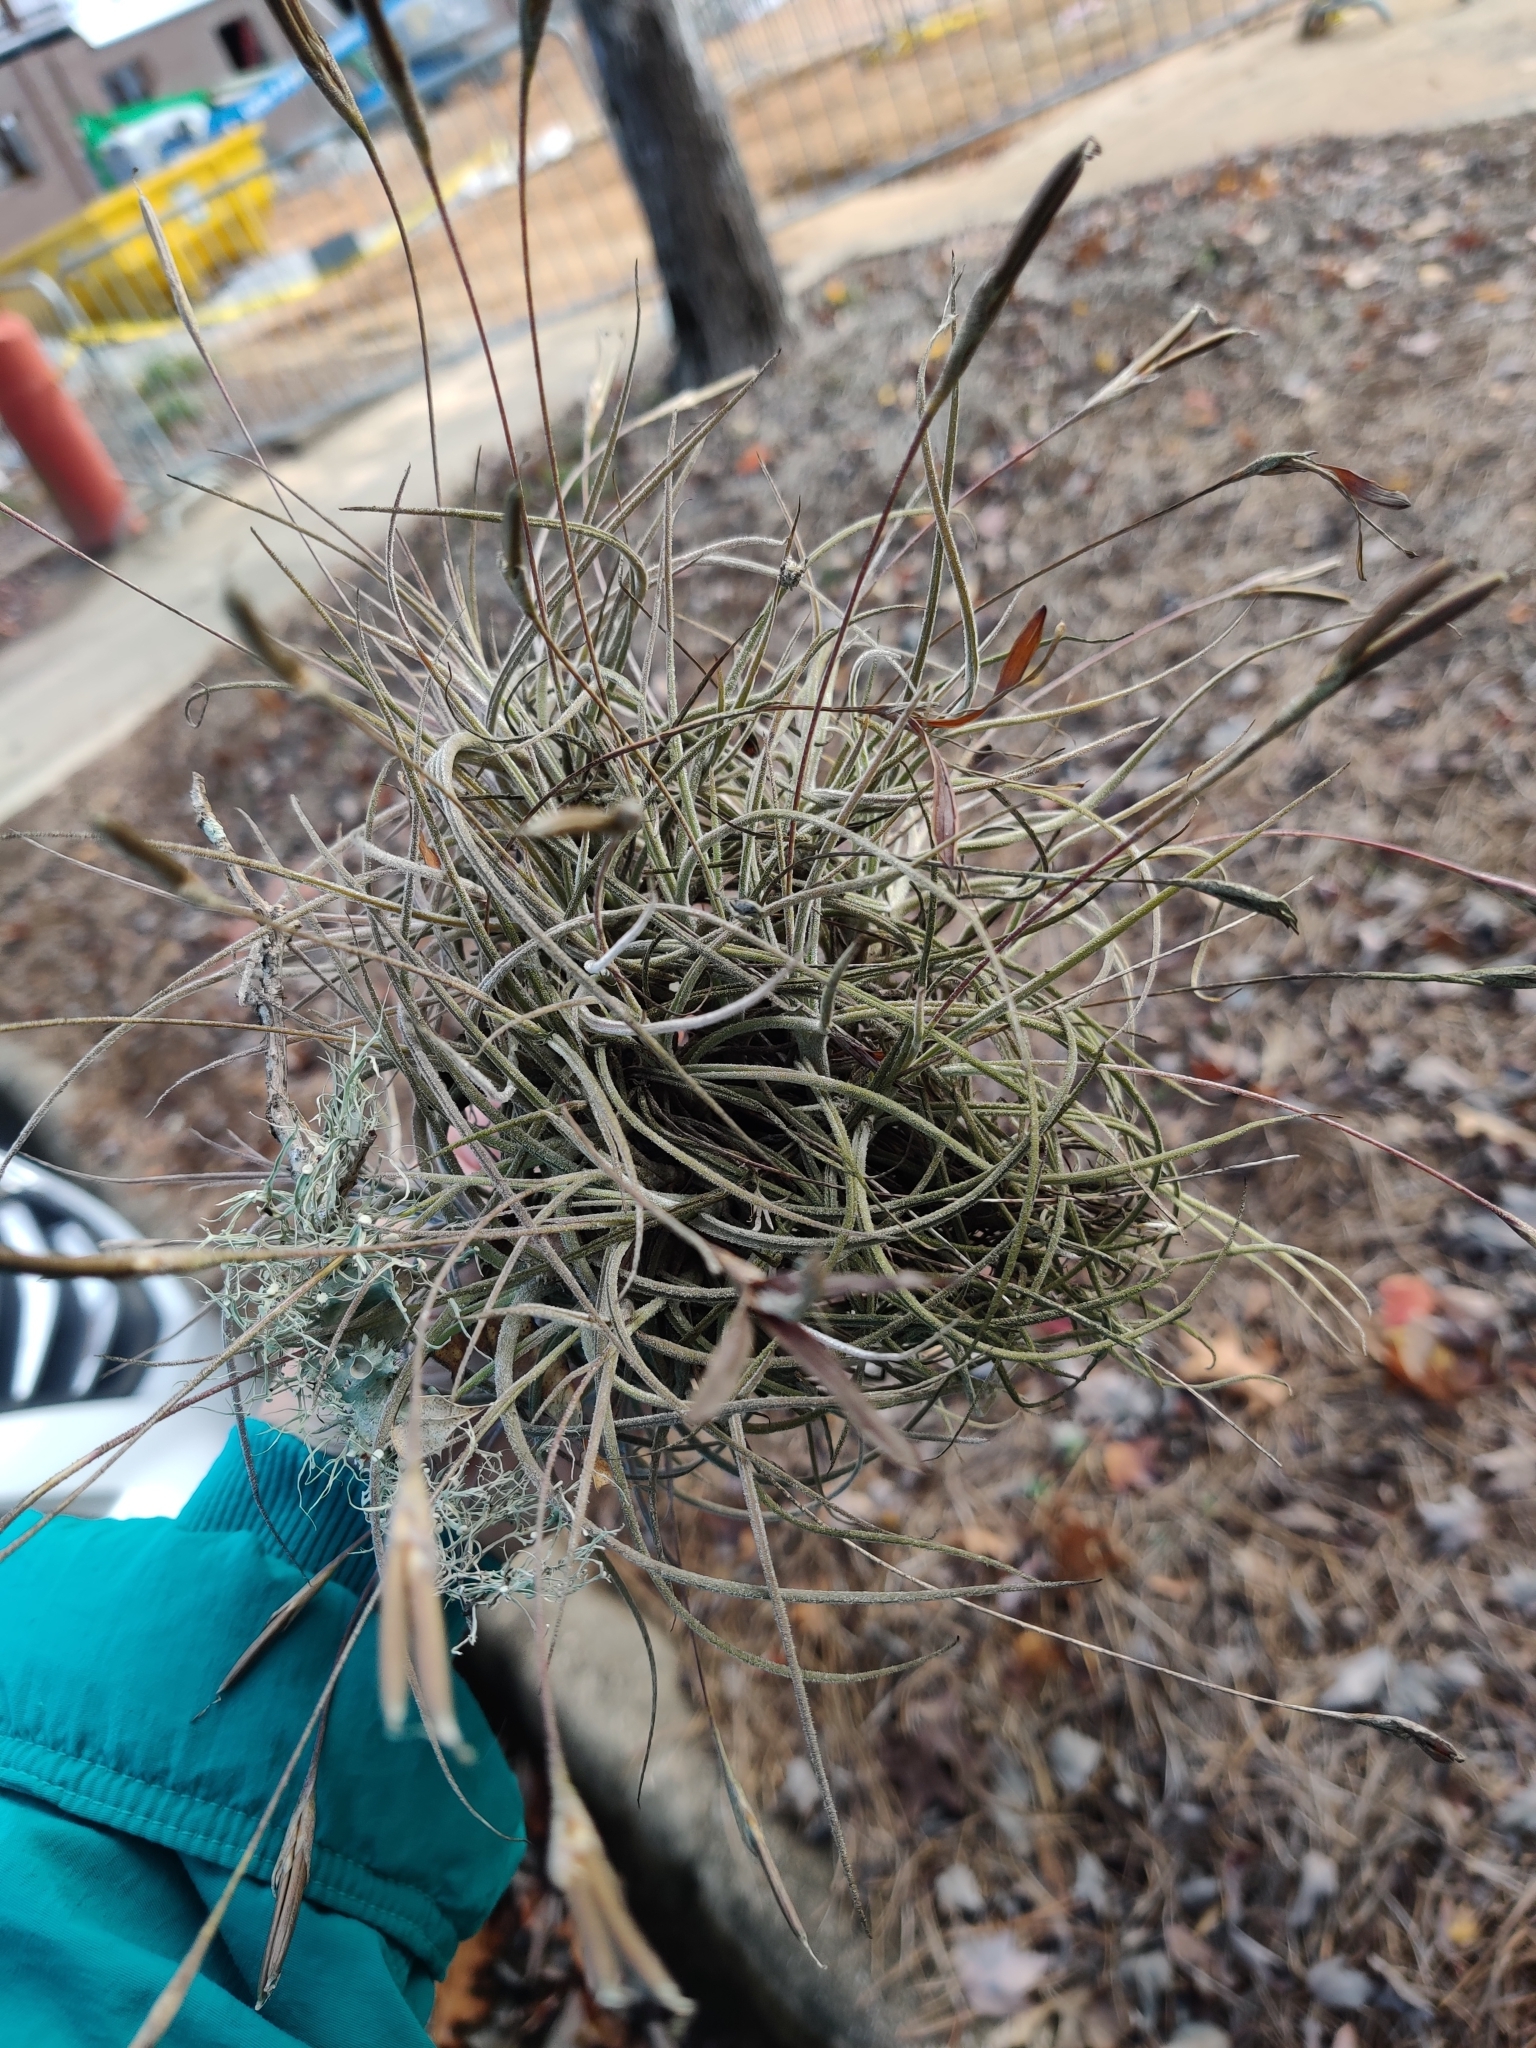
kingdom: Plantae
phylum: Tracheophyta
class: Liliopsida
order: Poales
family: Bromeliaceae
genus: Tillandsia
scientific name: Tillandsia recurvata
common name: Small ballmoss
